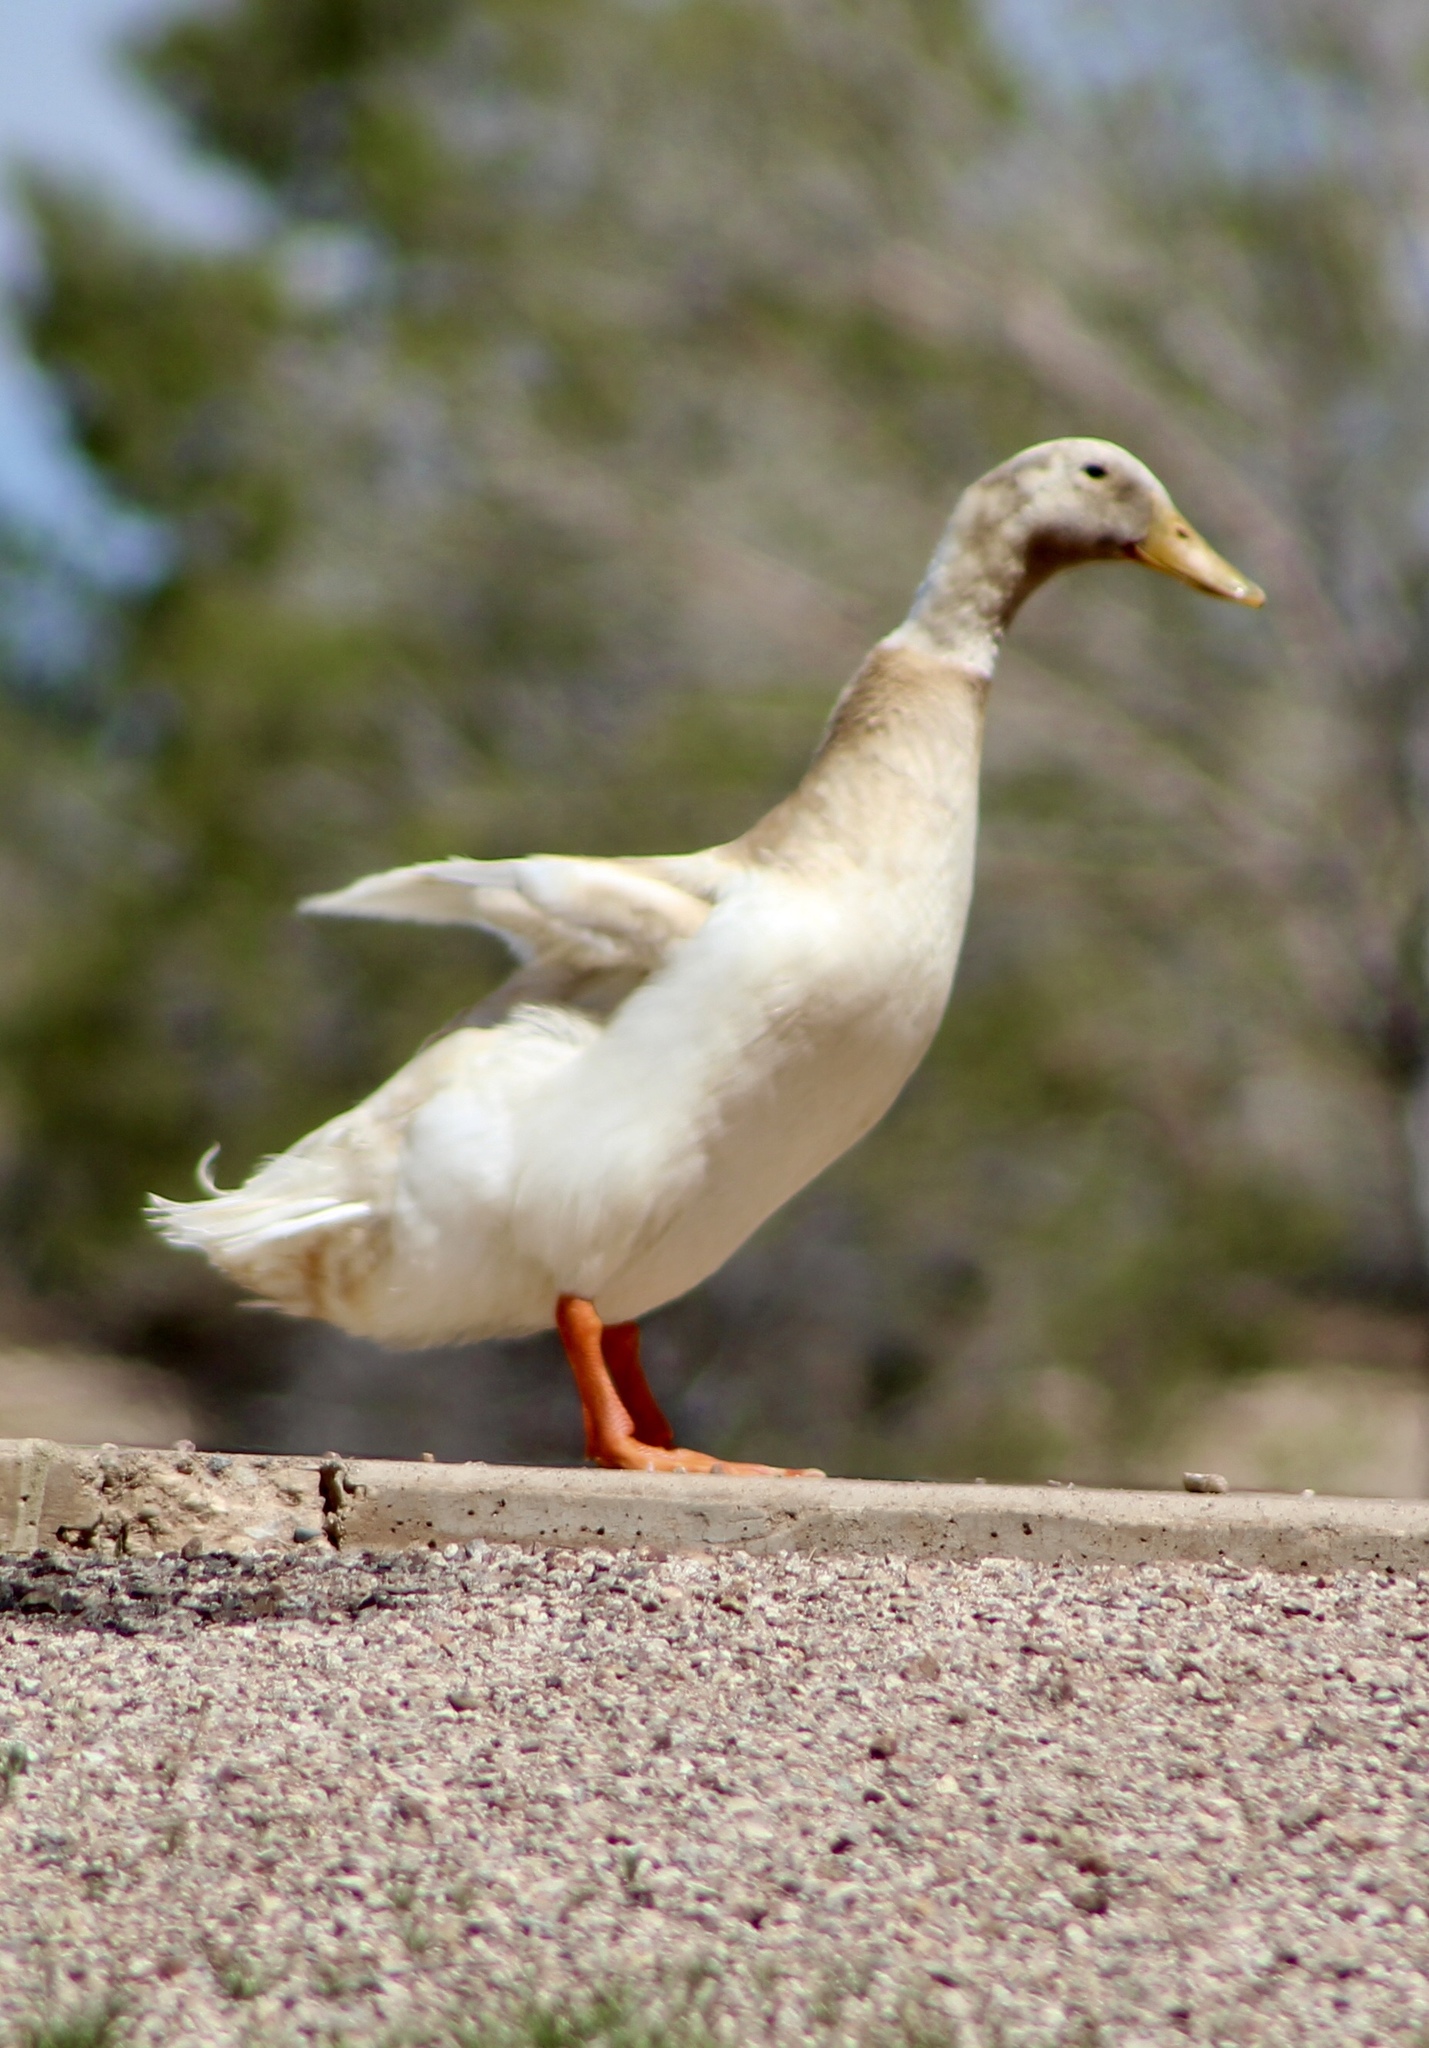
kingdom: Animalia
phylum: Chordata
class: Aves
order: Anseriformes
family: Anatidae
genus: Anas
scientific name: Anas platyrhynchos
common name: Mallard
